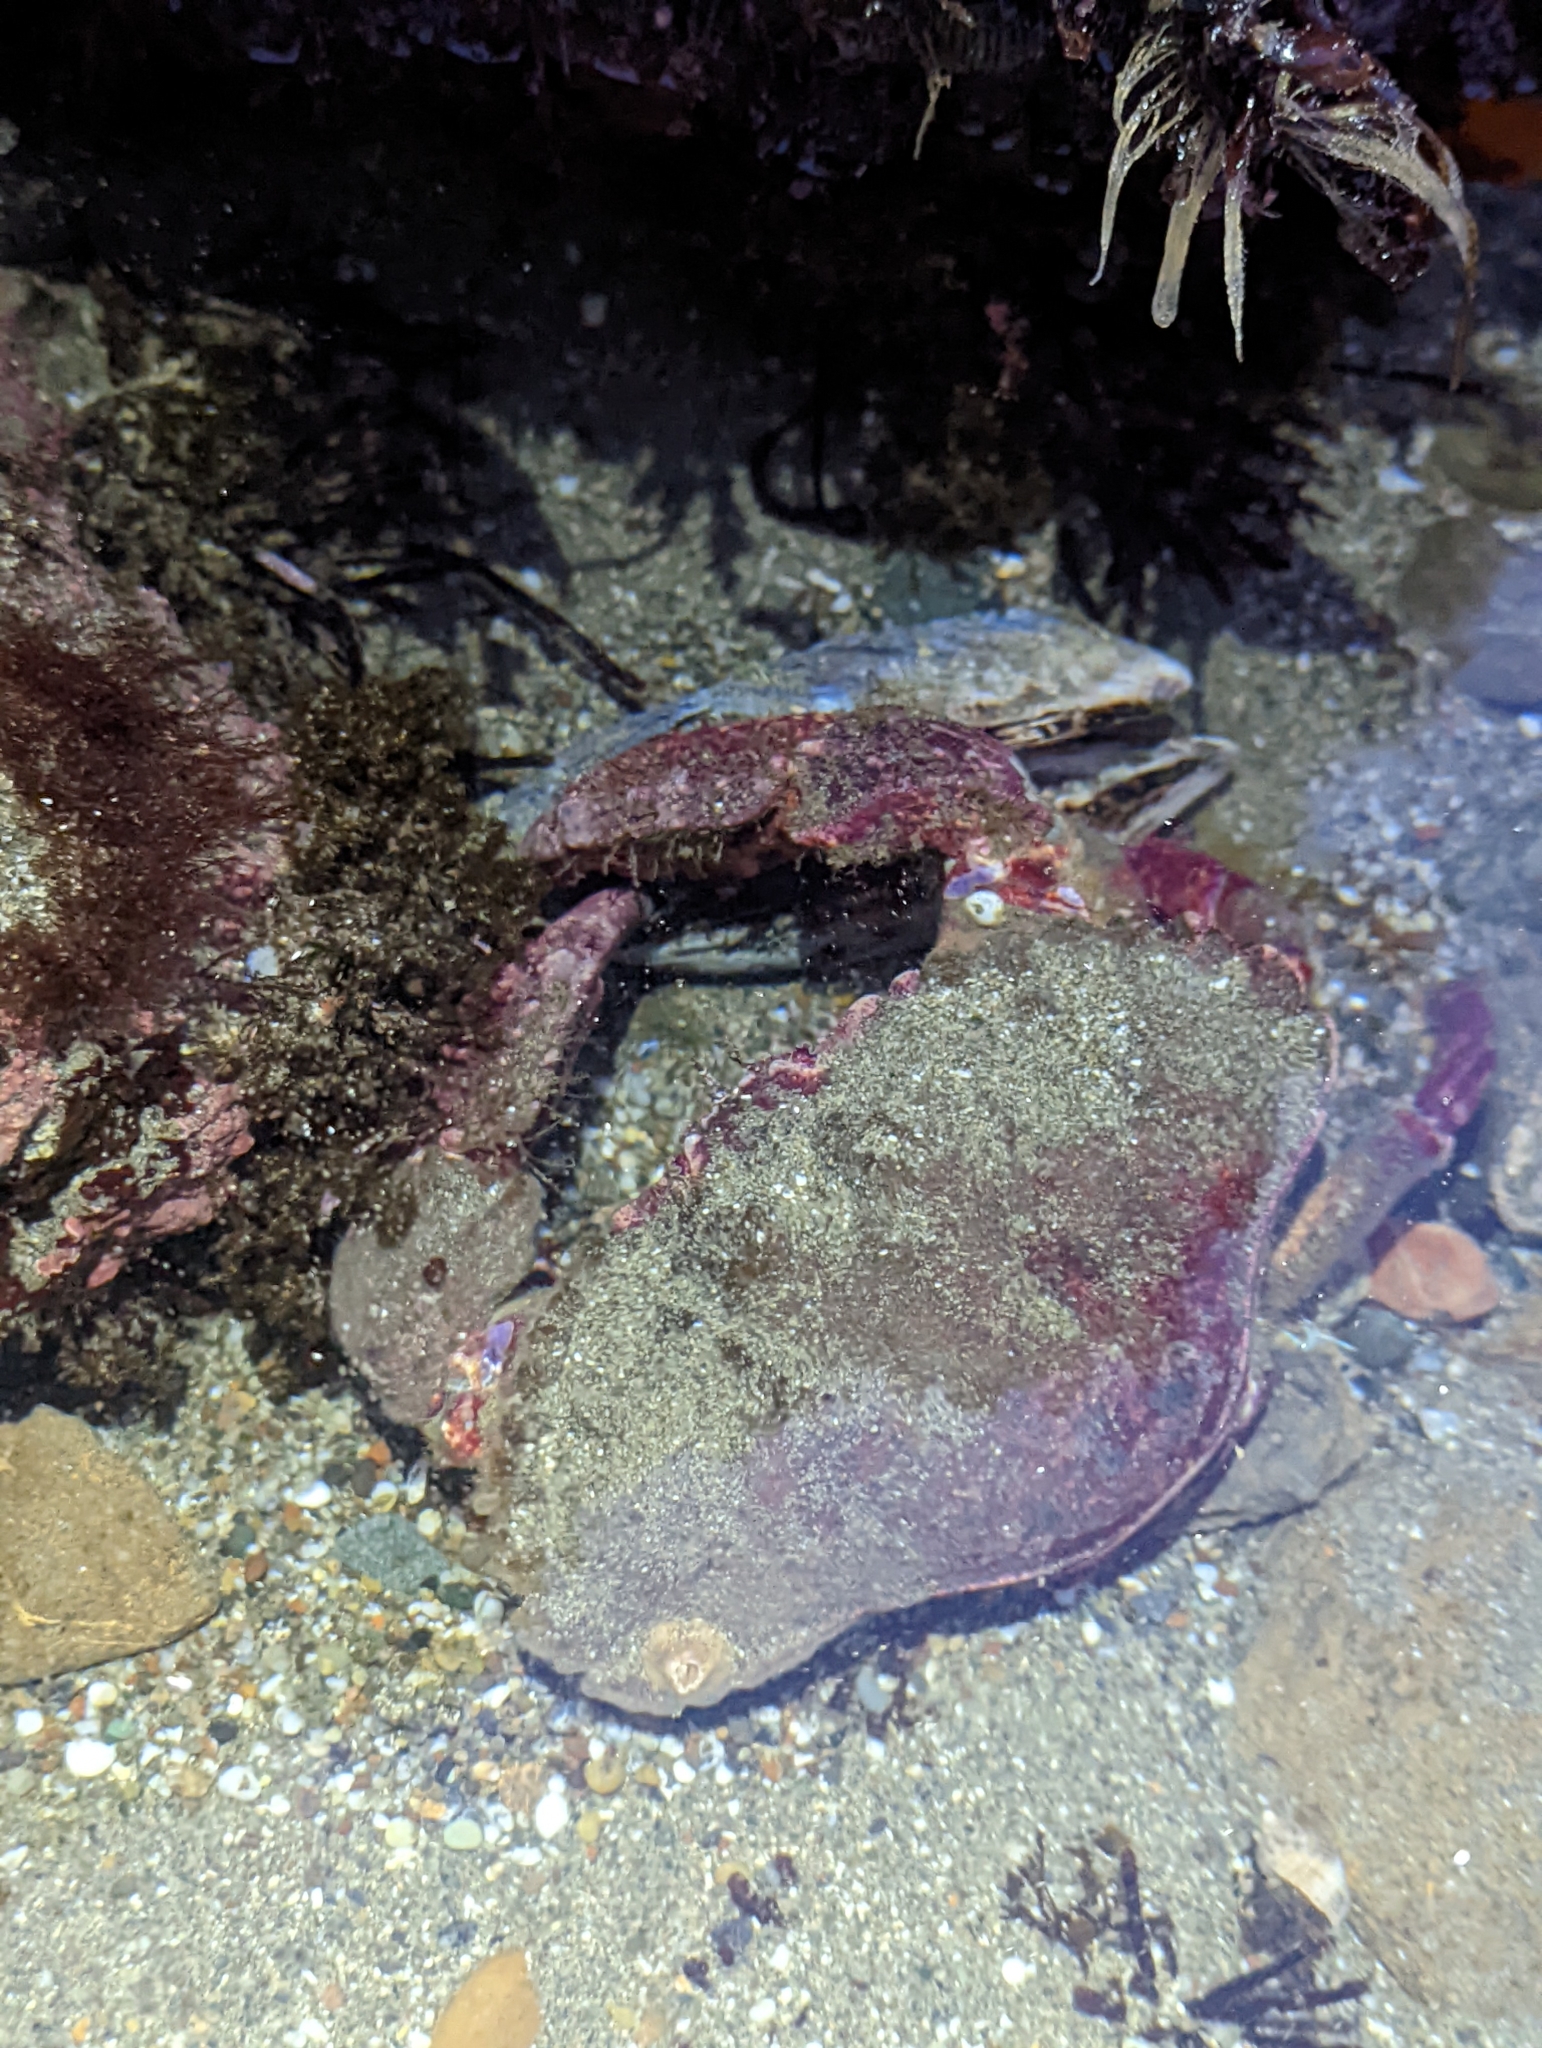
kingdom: Animalia
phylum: Arthropoda
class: Malacostraca
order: Decapoda
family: Cancridae
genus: Cancer
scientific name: Cancer productus
